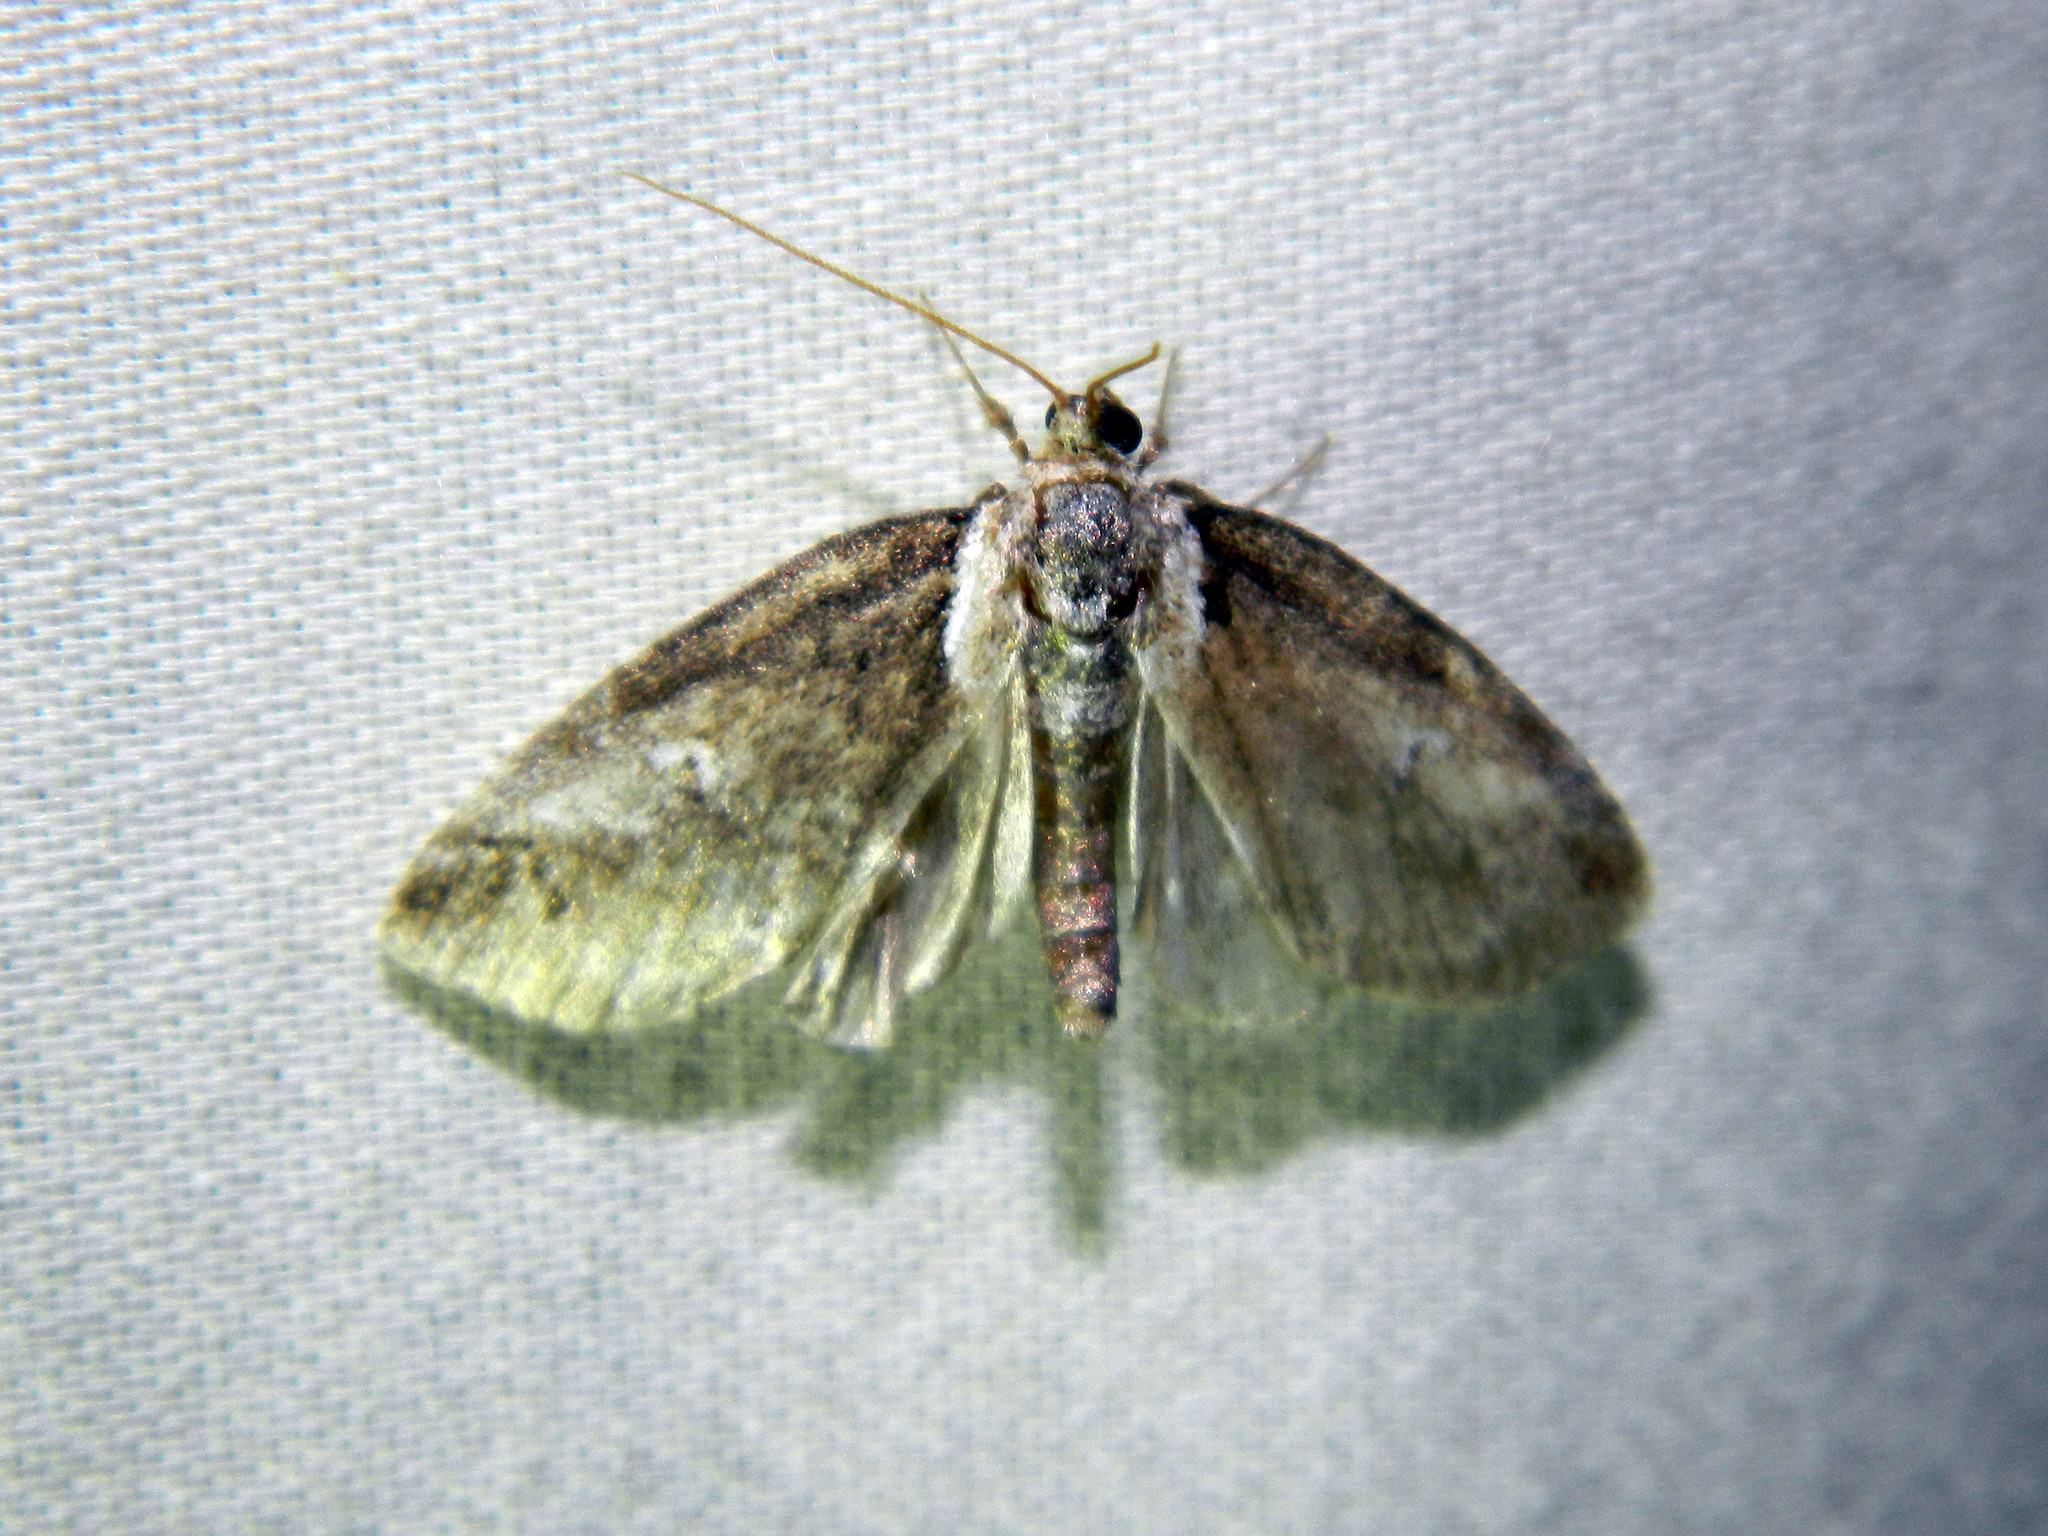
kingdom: Animalia
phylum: Arthropoda
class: Insecta
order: Lepidoptera
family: Nolidae
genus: Baileya
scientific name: Baileya ophthalmica
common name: Eyed baileya moth
